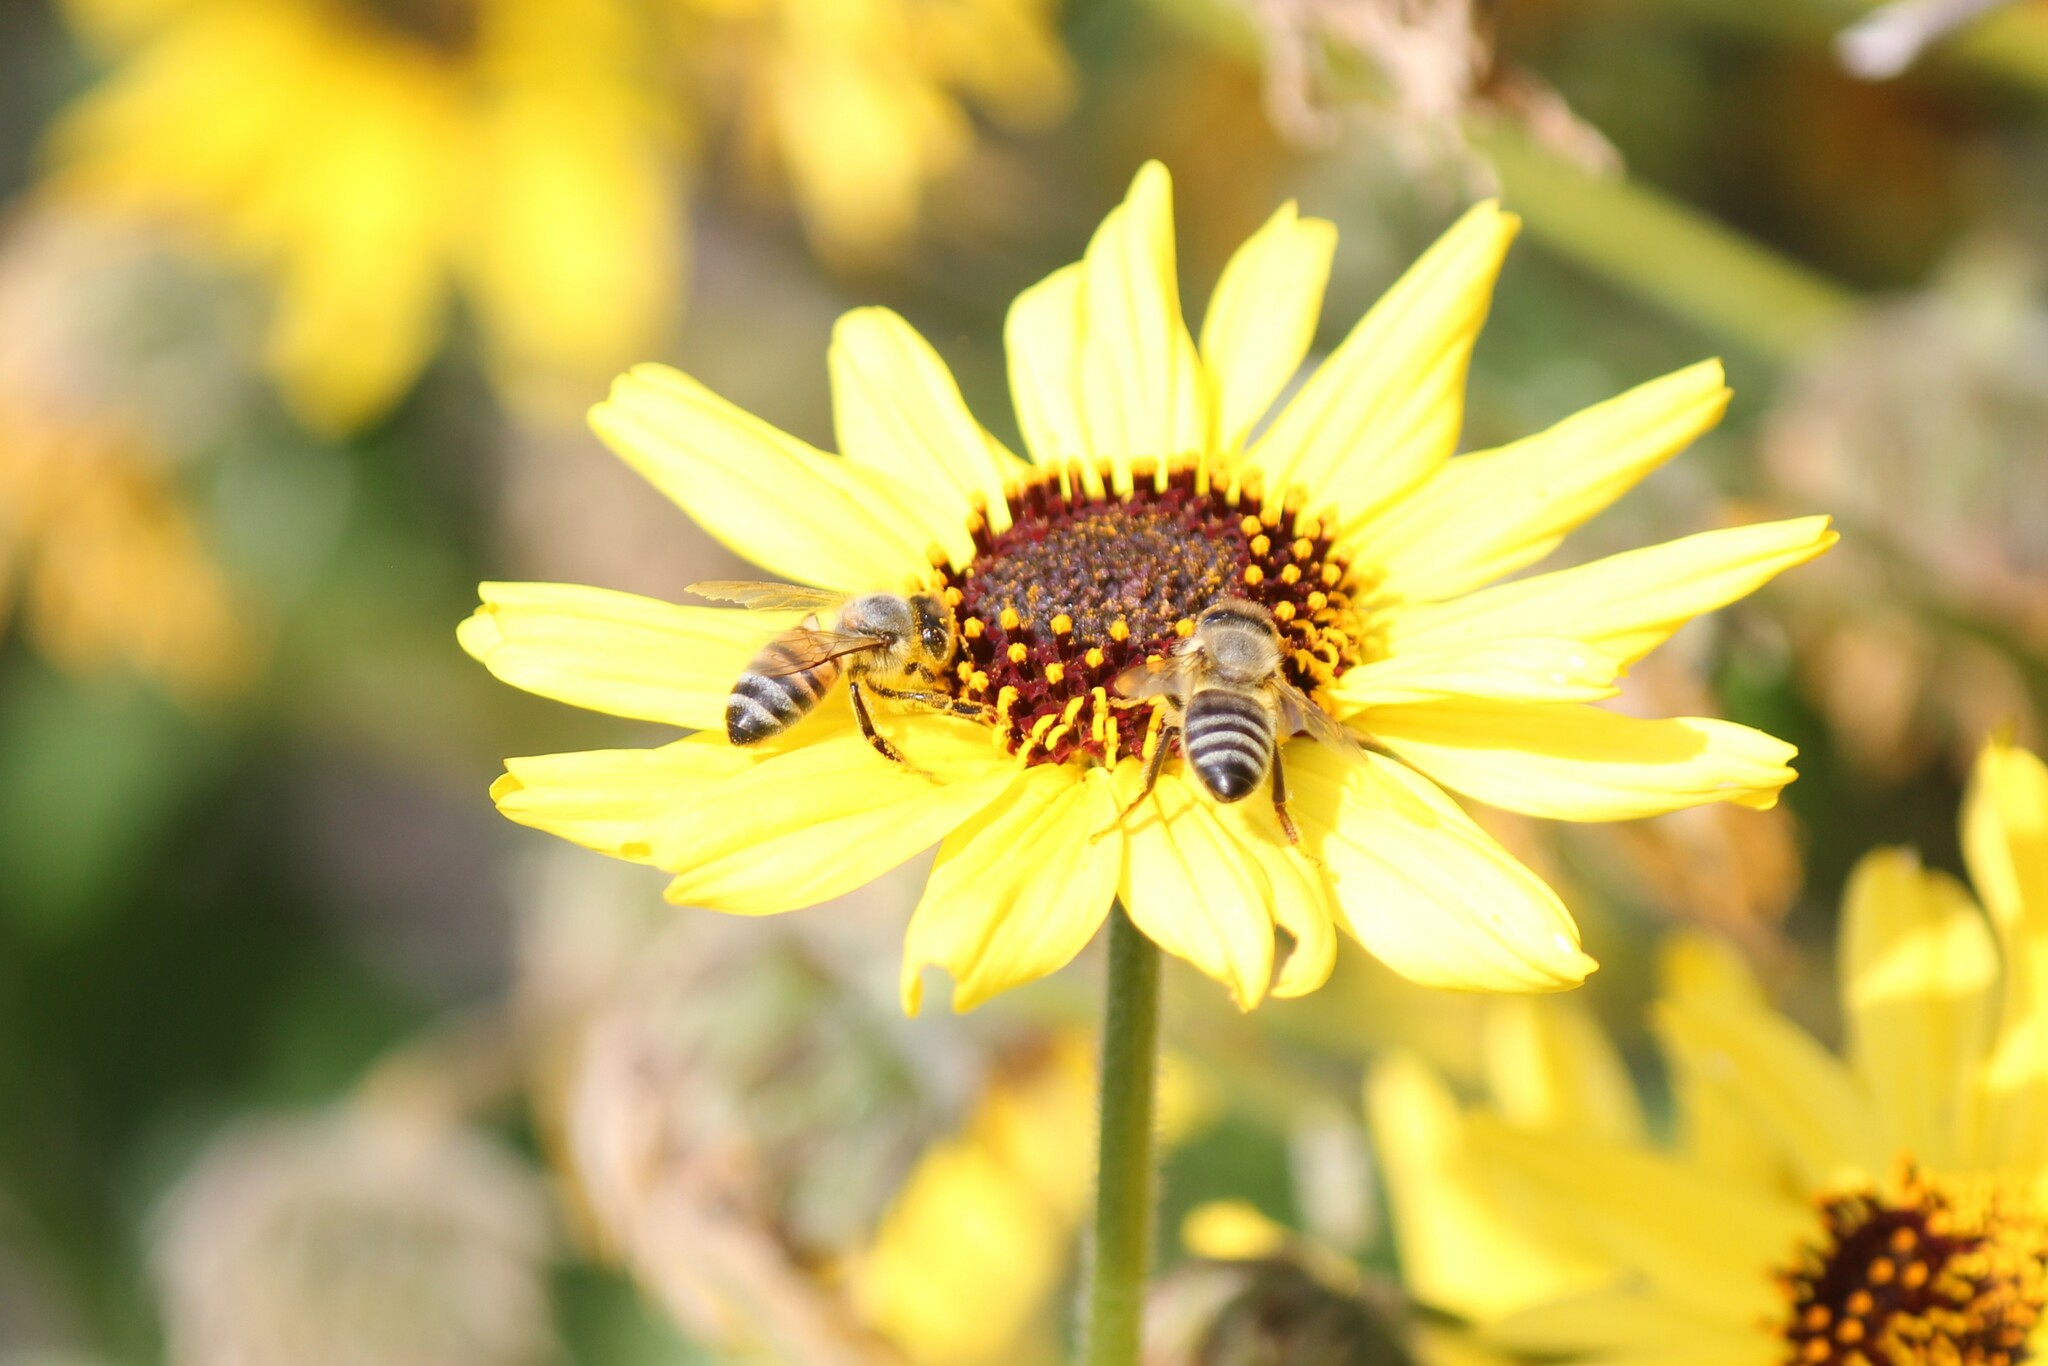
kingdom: Animalia
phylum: Arthropoda
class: Insecta
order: Hymenoptera
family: Apidae
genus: Apis
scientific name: Apis mellifera
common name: Honey bee
